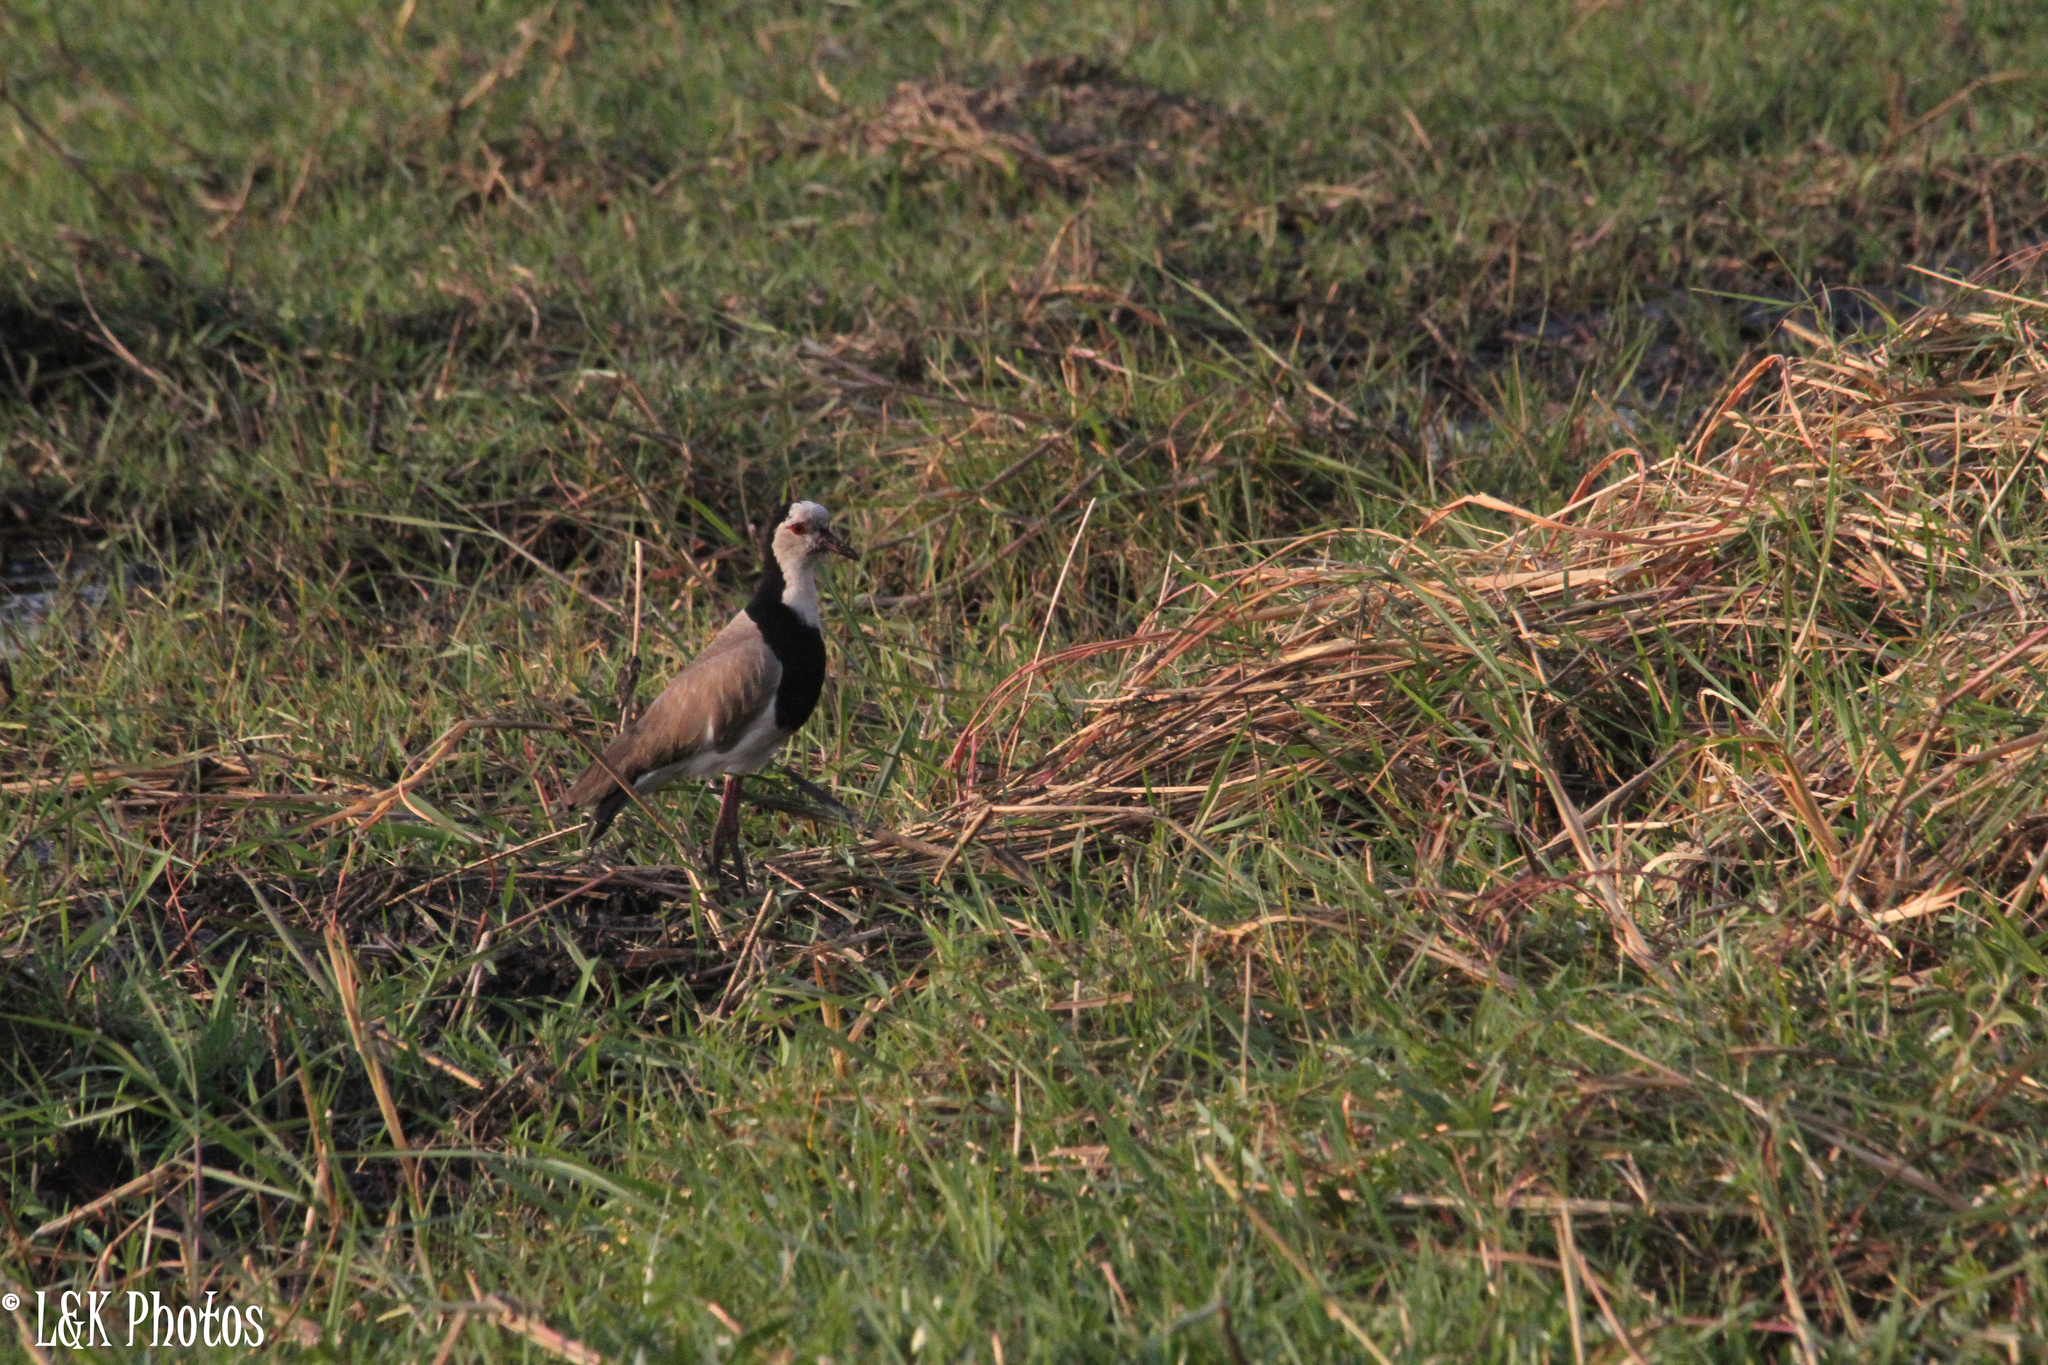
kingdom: Animalia
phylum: Chordata
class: Aves
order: Charadriiformes
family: Charadriidae
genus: Vanellus
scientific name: Vanellus crassirostris
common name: Long-toed lapwing
